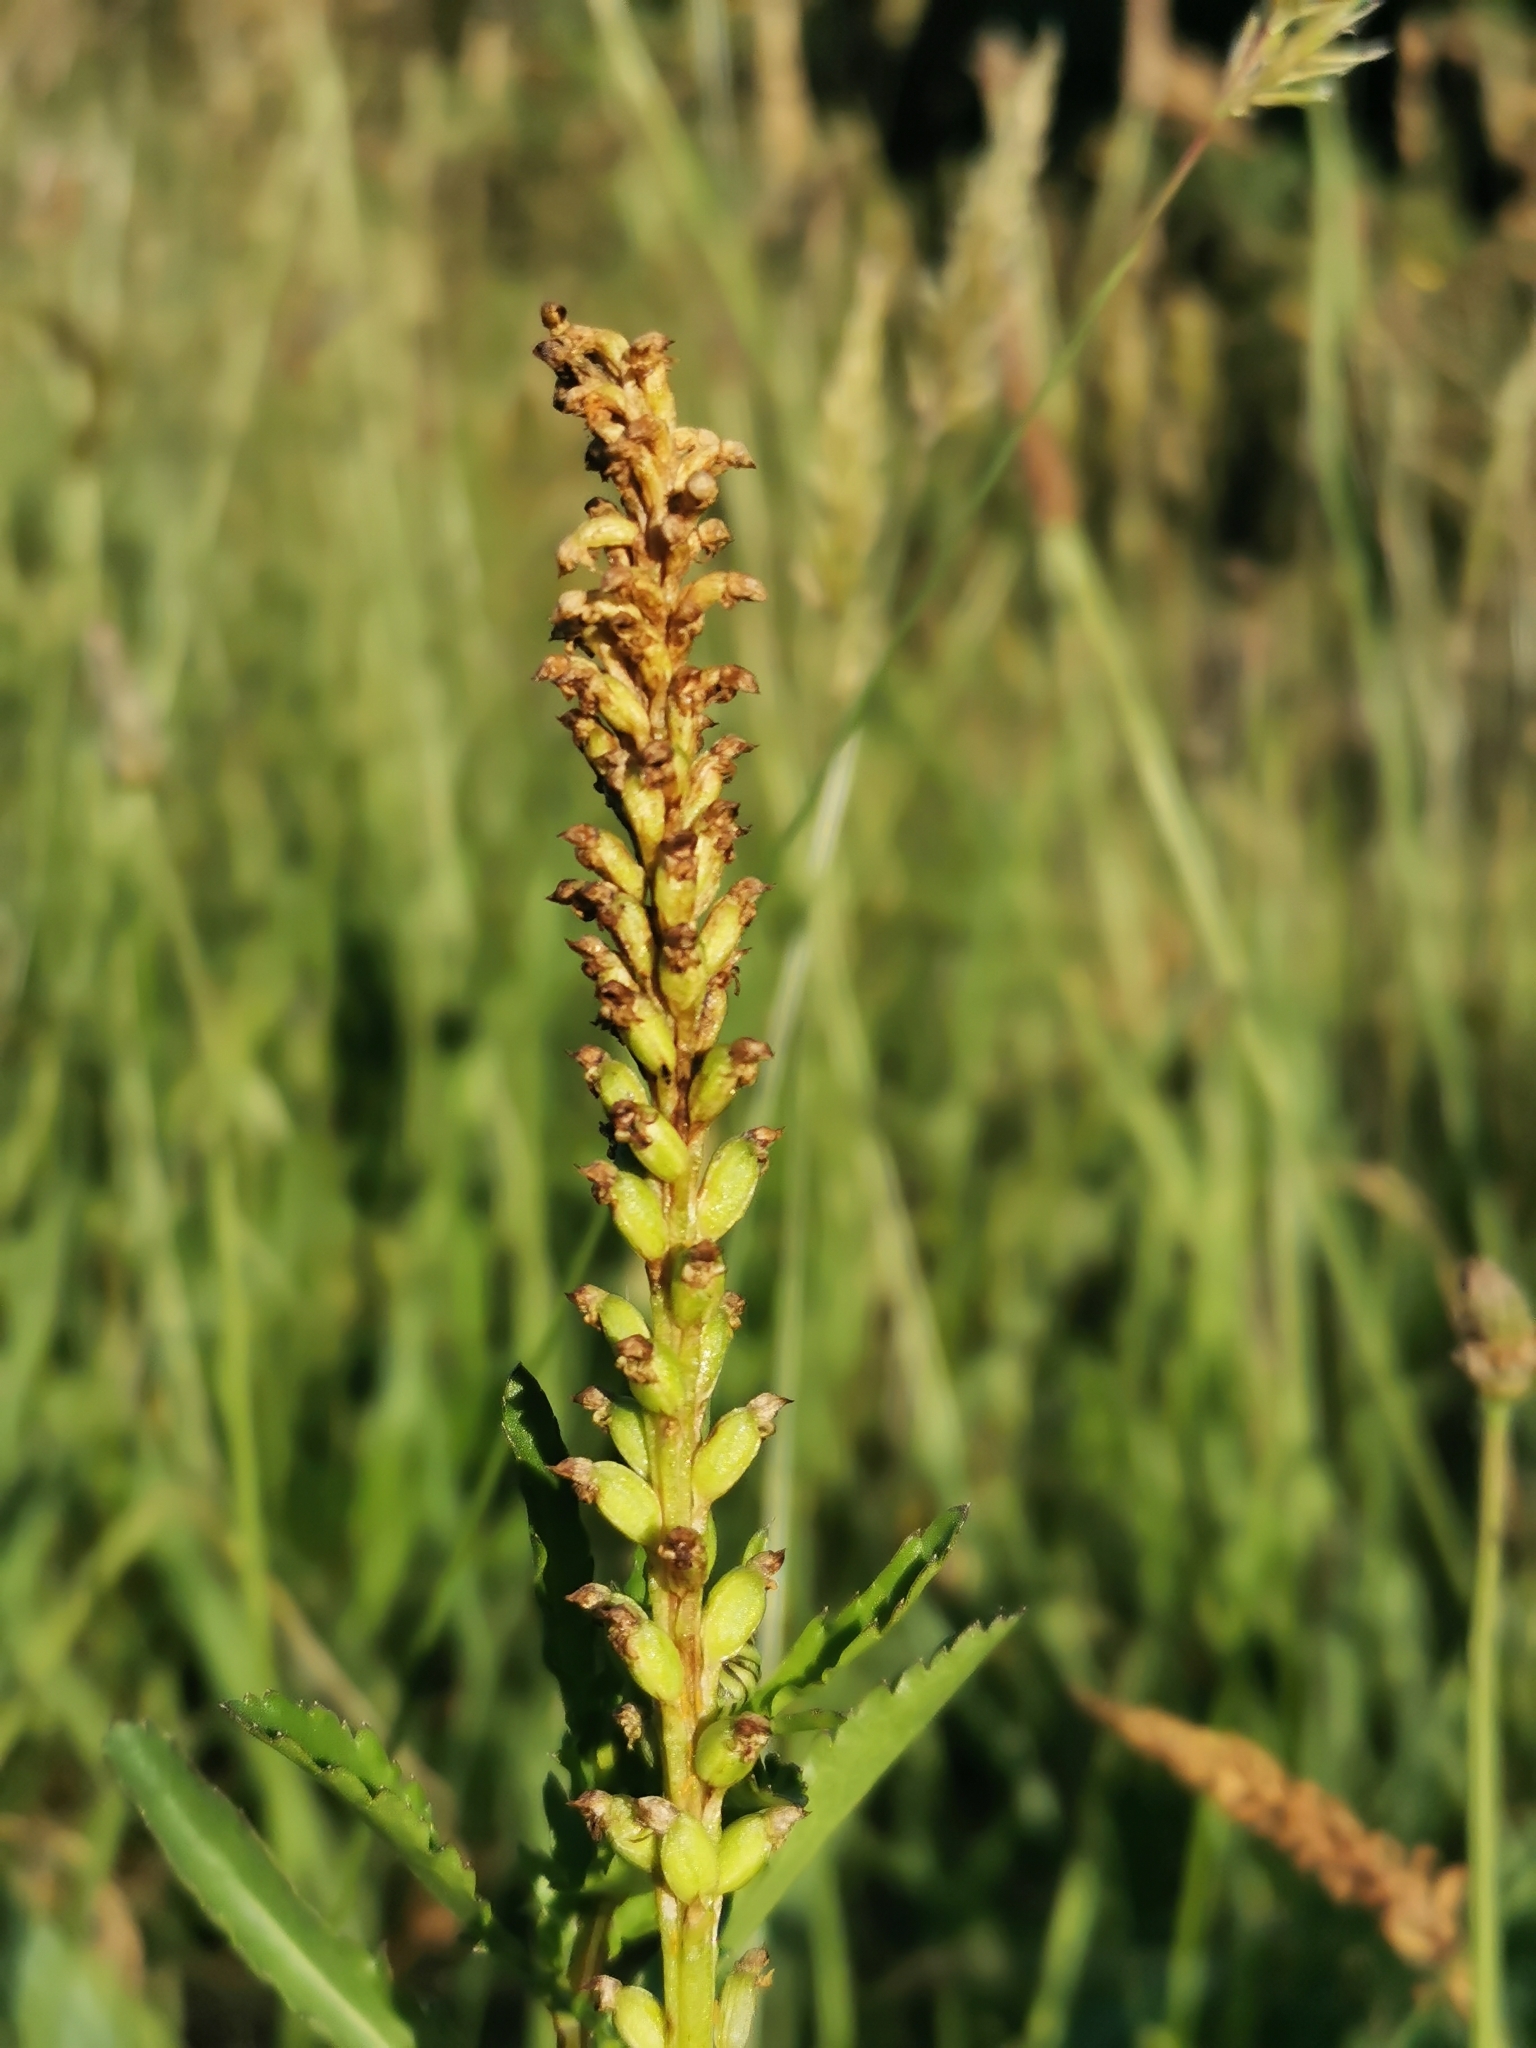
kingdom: Plantae
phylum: Tracheophyta
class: Liliopsida
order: Asparagales
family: Orchidaceae
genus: Microtis
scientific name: Microtis unifolia
